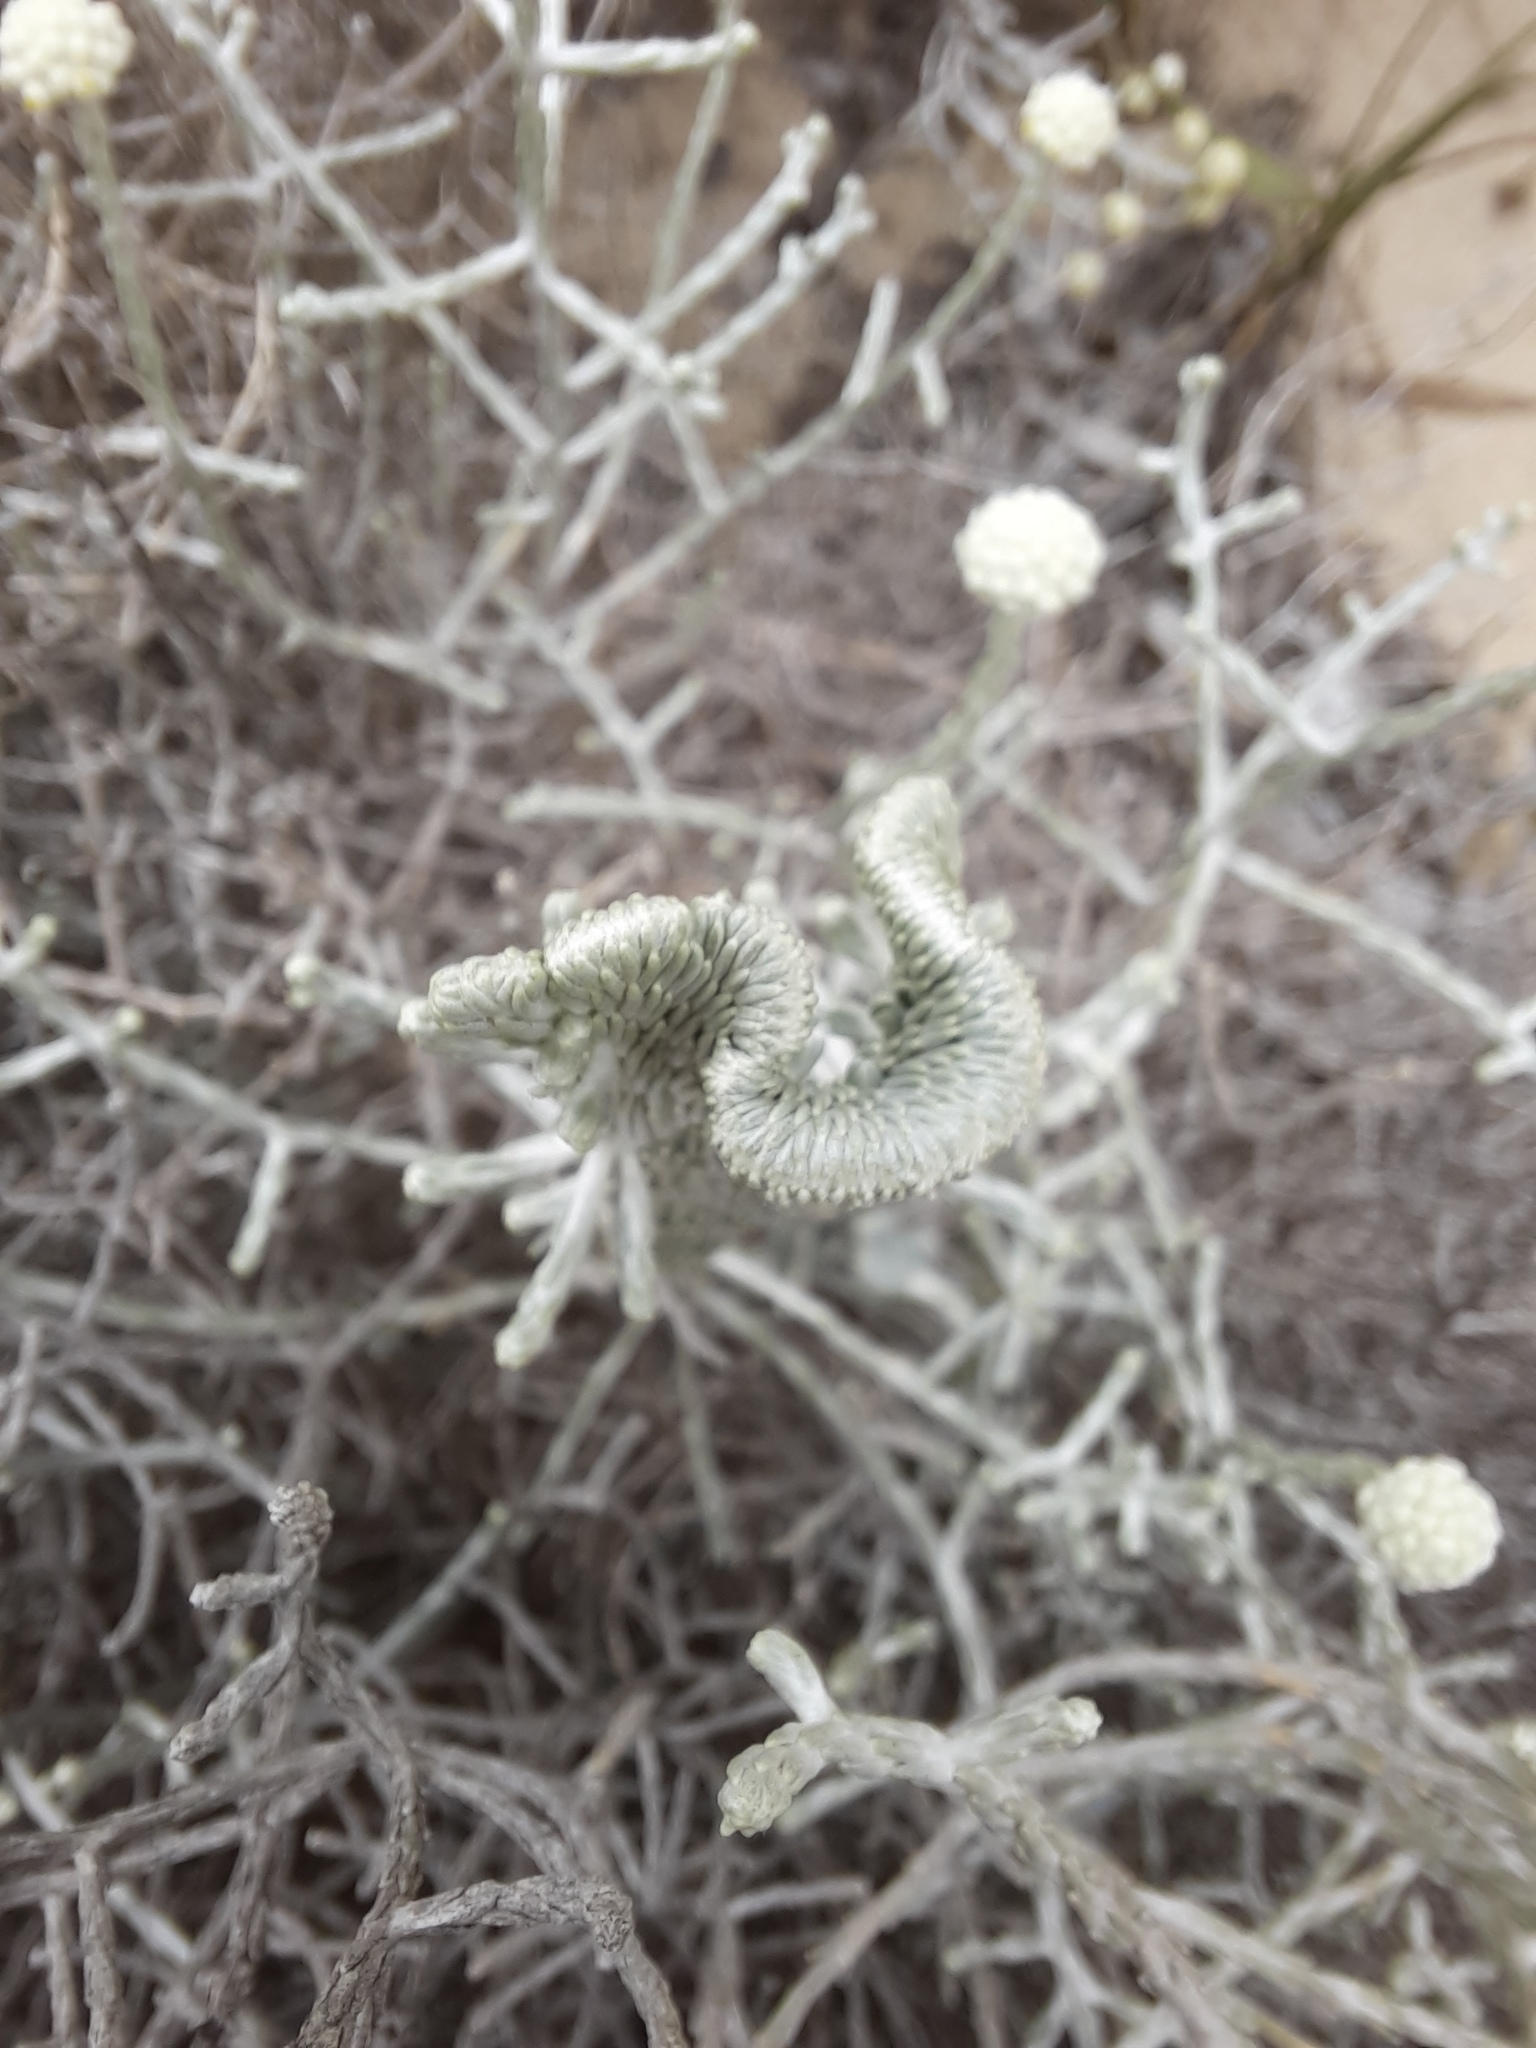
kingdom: Plantae
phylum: Tracheophyta
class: Magnoliopsida
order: Asterales
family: Asteraceae
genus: Calocephalus
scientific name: Calocephalus brownii
